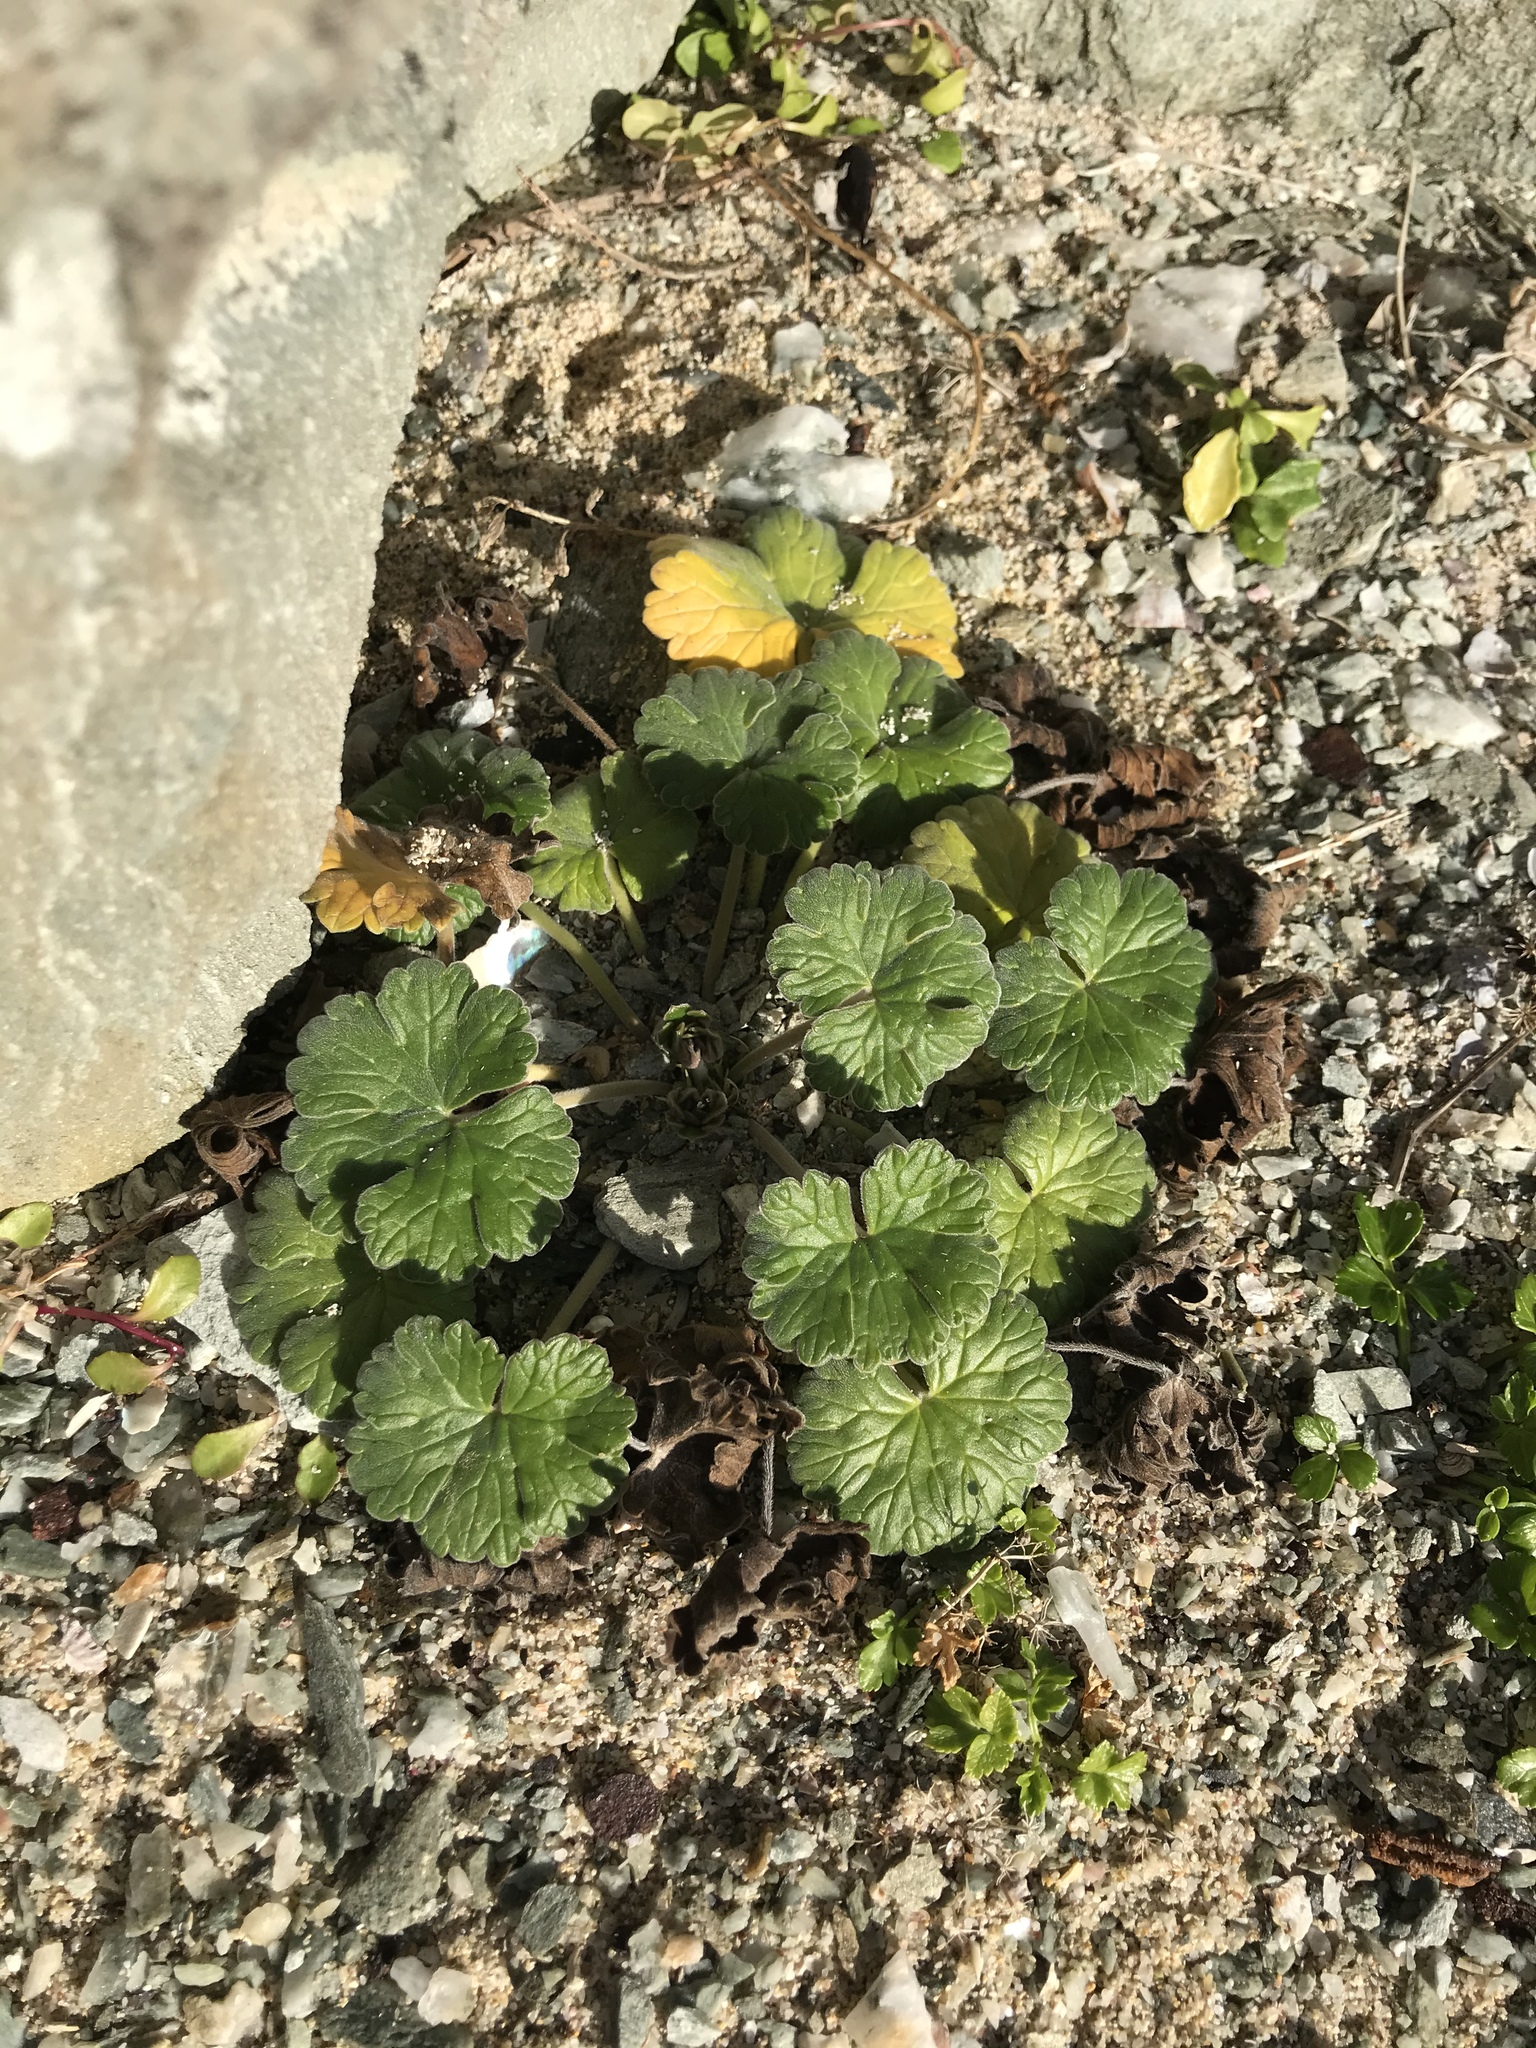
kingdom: Plantae
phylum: Tracheophyta
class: Magnoliopsida
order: Geraniales
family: Geraniaceae
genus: Geranium
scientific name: Geranium traversii
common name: Cranesbill
